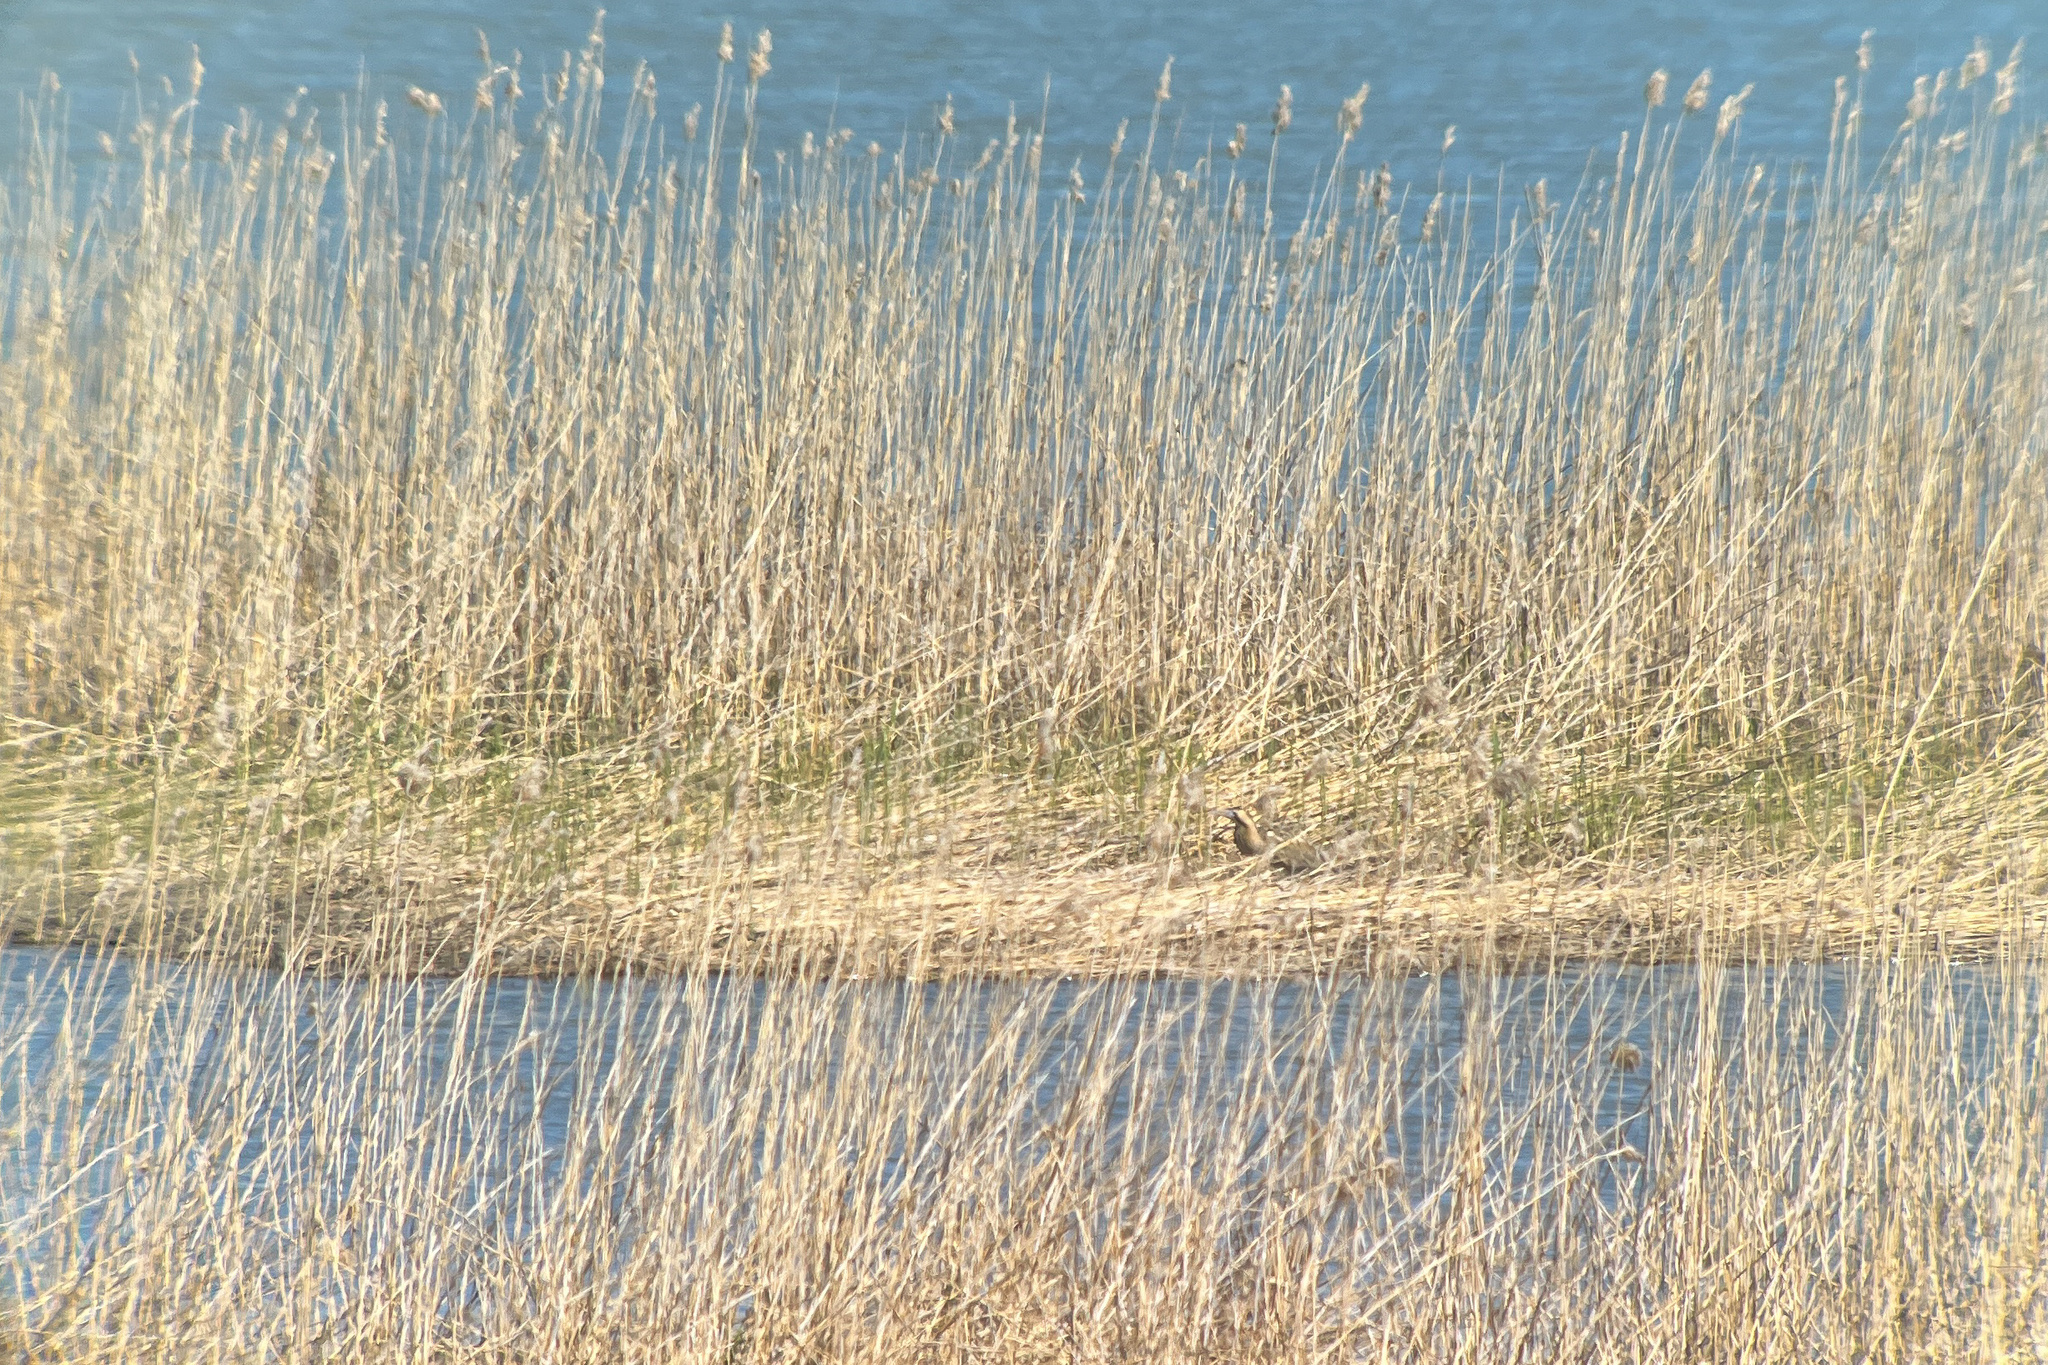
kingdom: Animalia
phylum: Chordata
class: Aves
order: Pelecaniformes
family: Ardeidae
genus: Botaurus
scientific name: Botaurus stellaris
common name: Eurasian bittern
